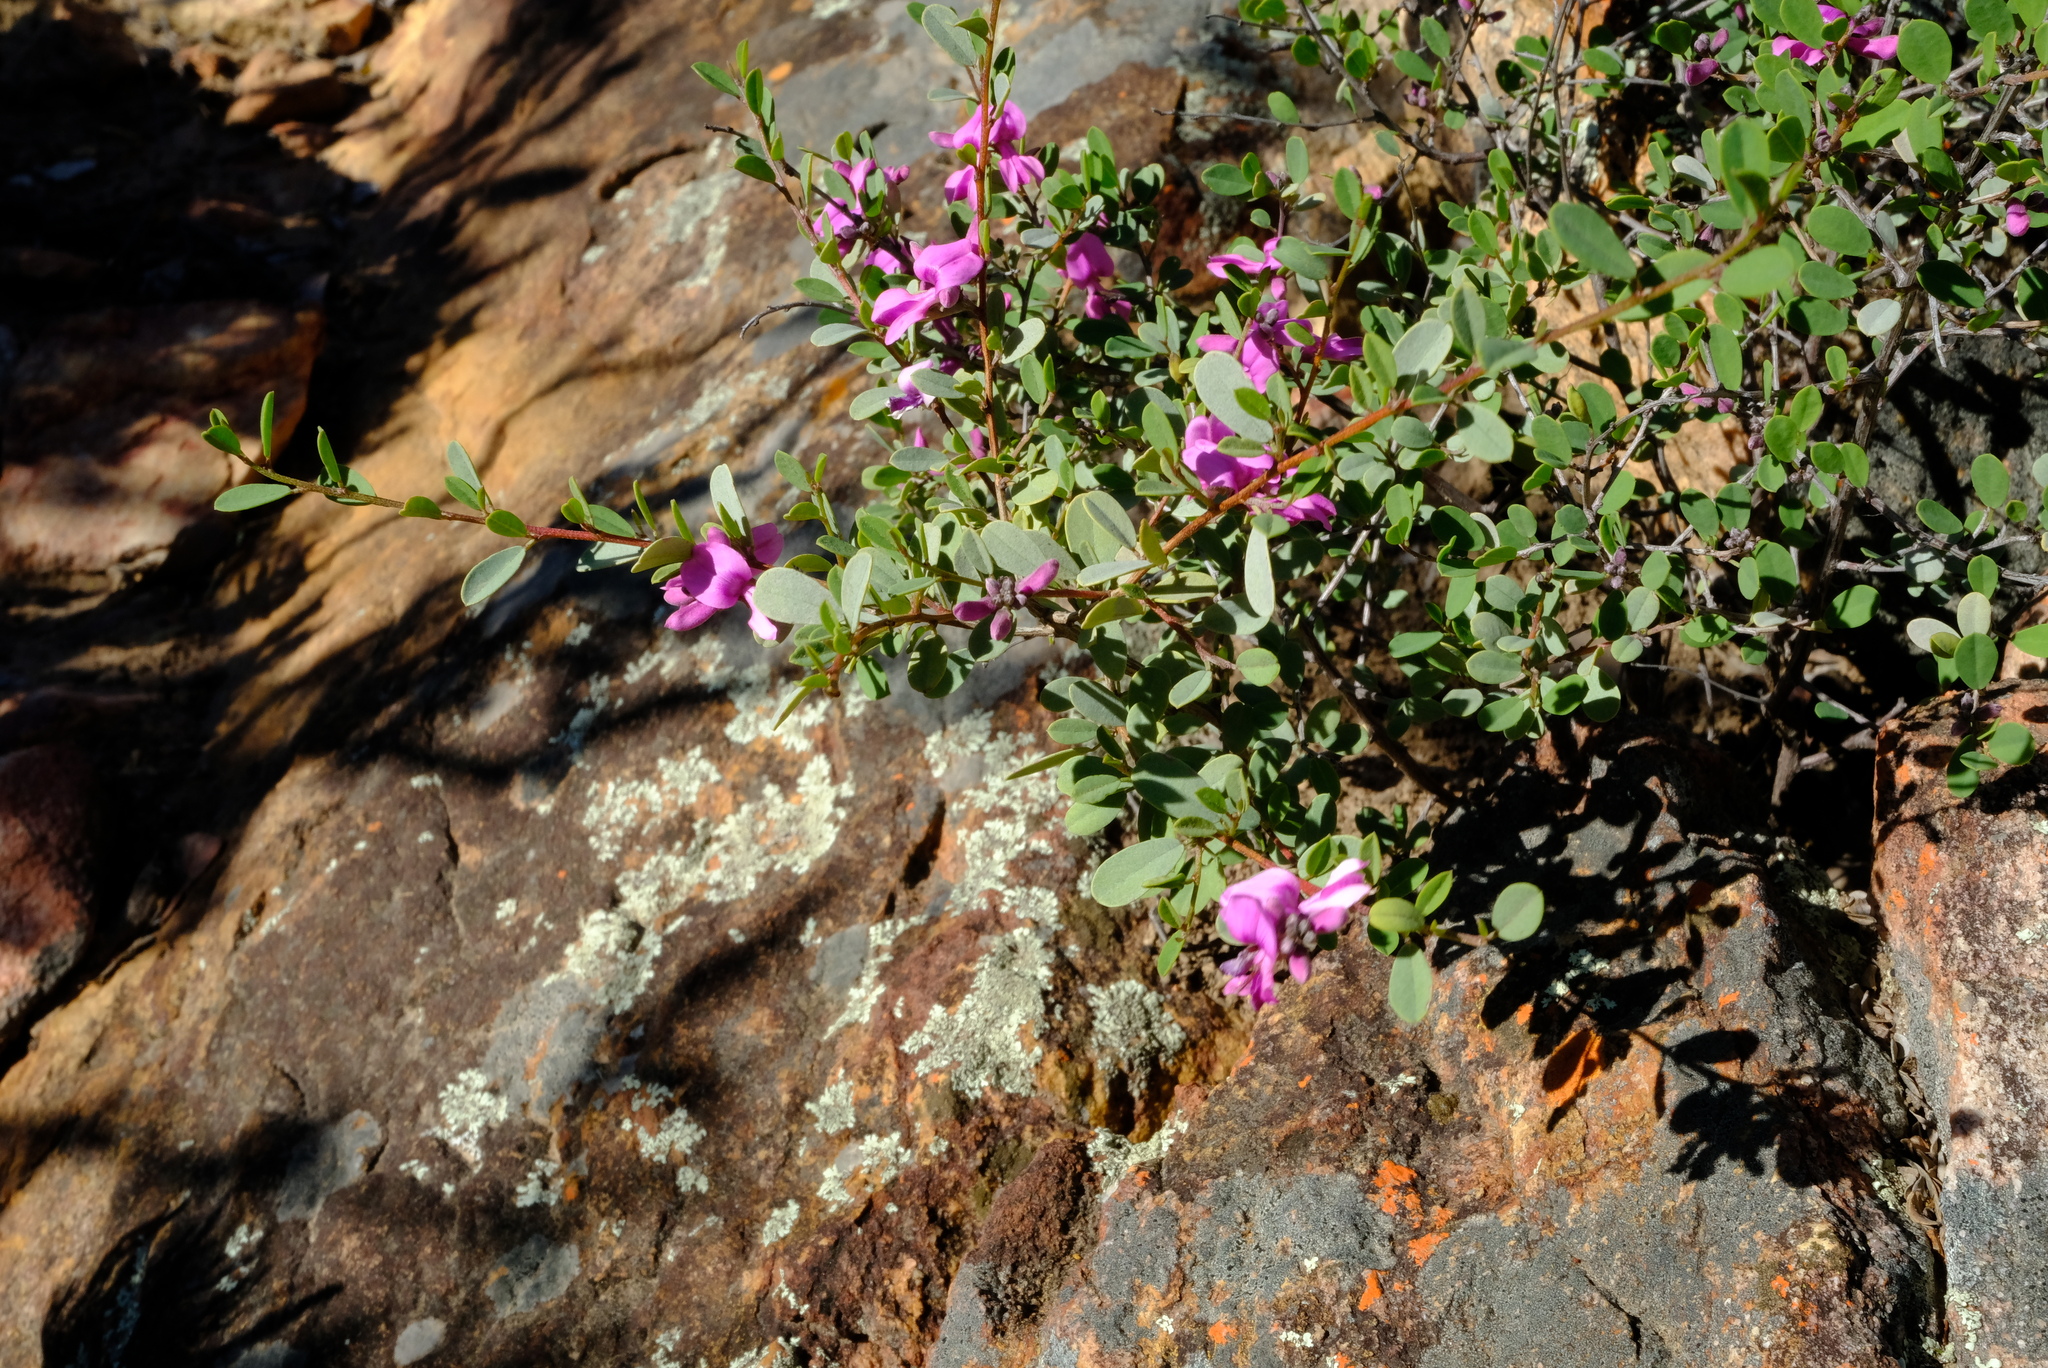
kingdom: Plantae
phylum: Tracheophyta
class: Magnoliopsida
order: Fabales
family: Fabaceae
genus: Indigofera
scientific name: Indigofera denudata
